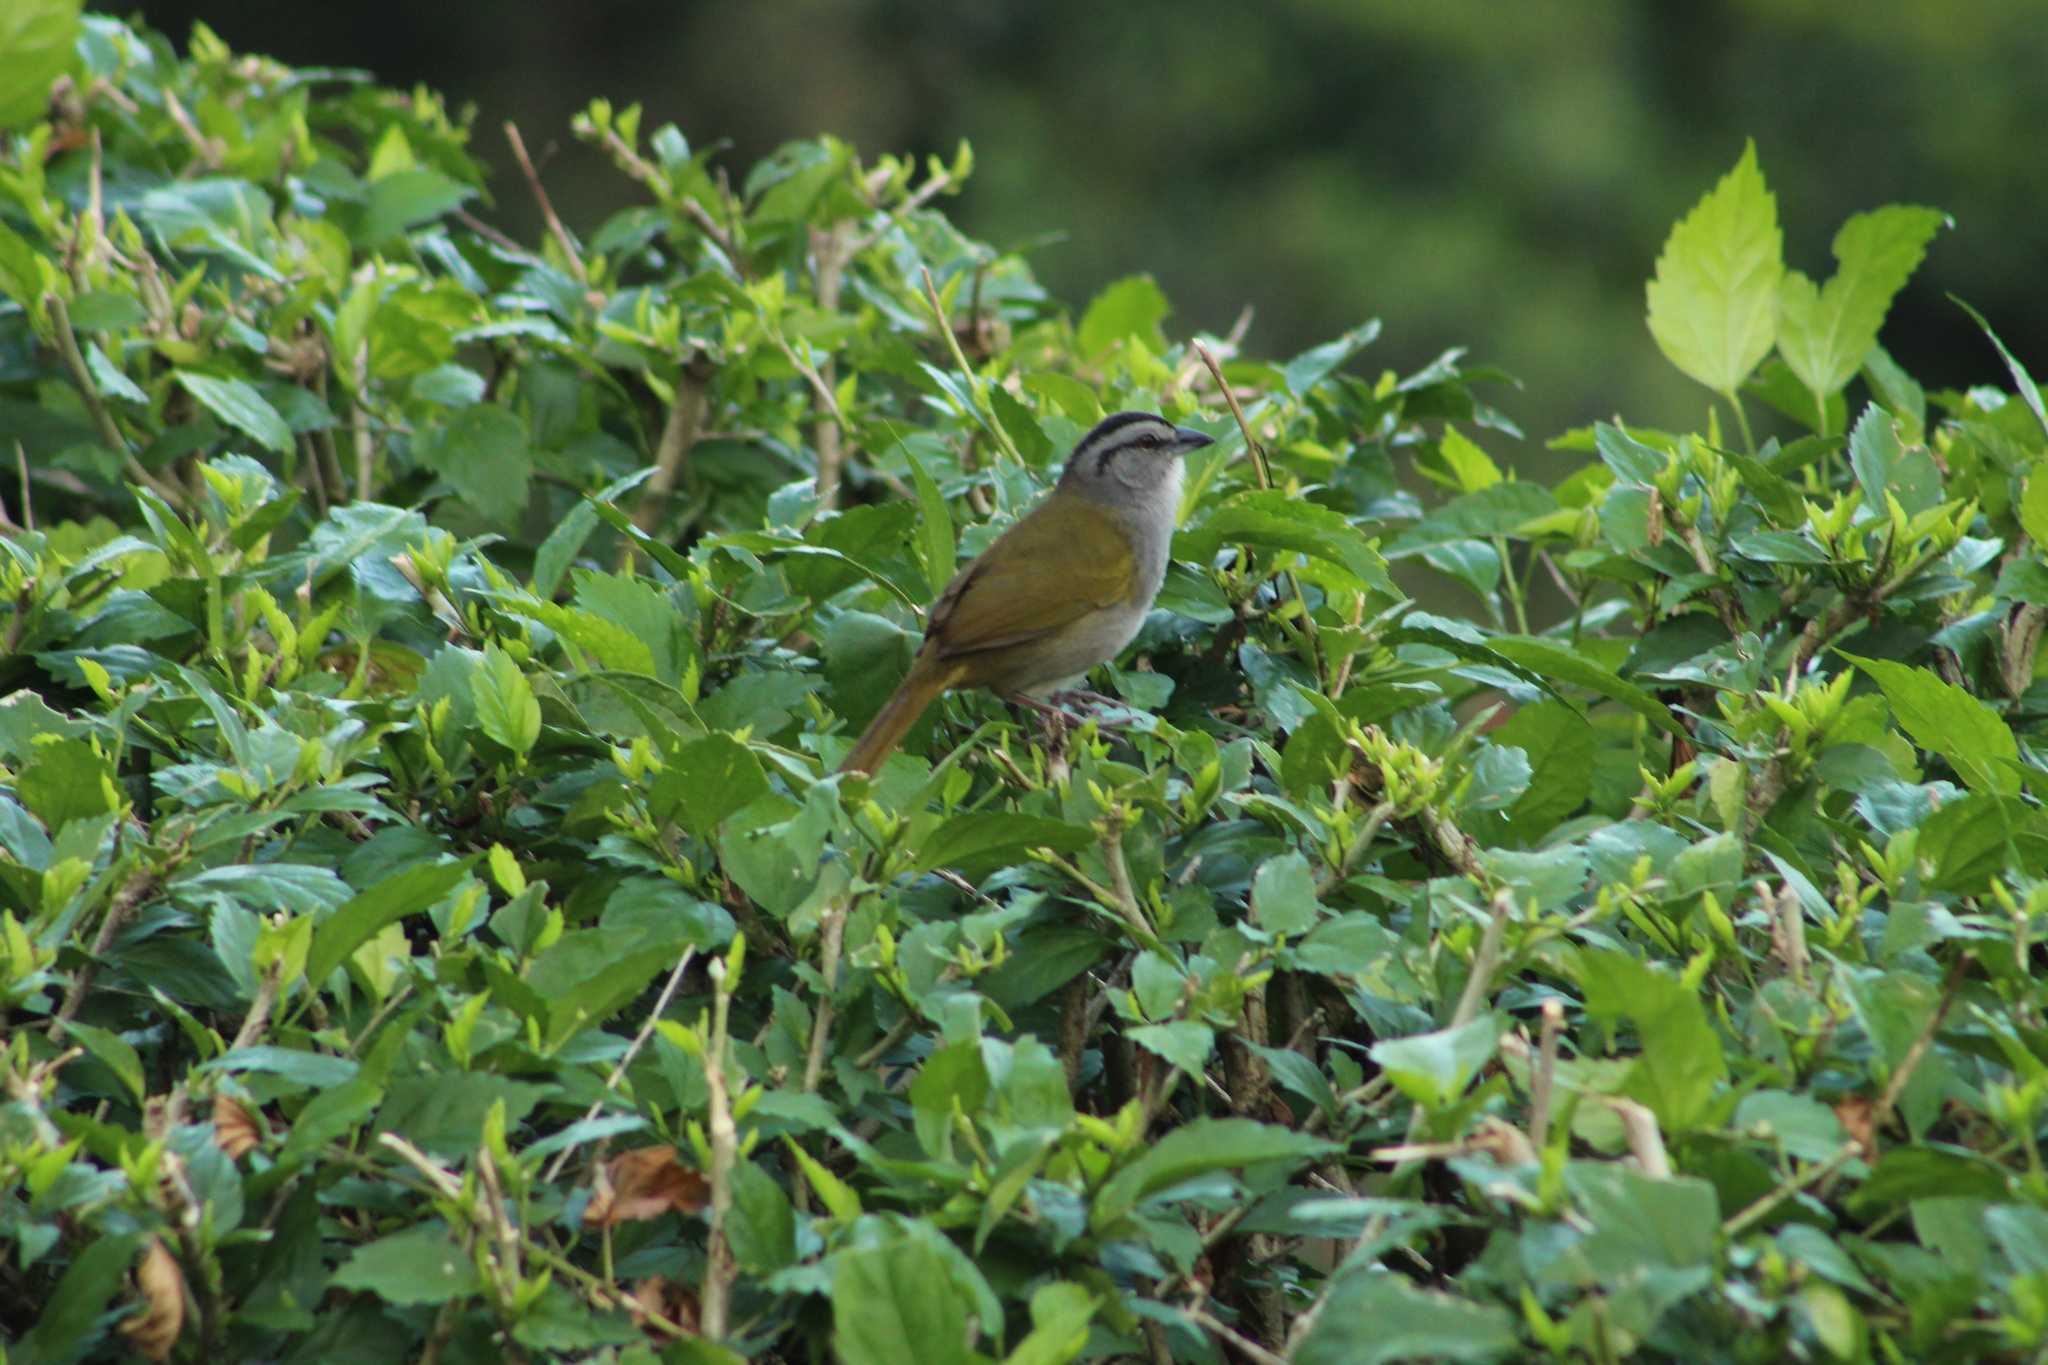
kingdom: Animalia
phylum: Chordata
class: Aves
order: Passeriformes
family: Passerellidae
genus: Arremonops
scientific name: Arremonops conirostris
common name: Black-striped sparrow
